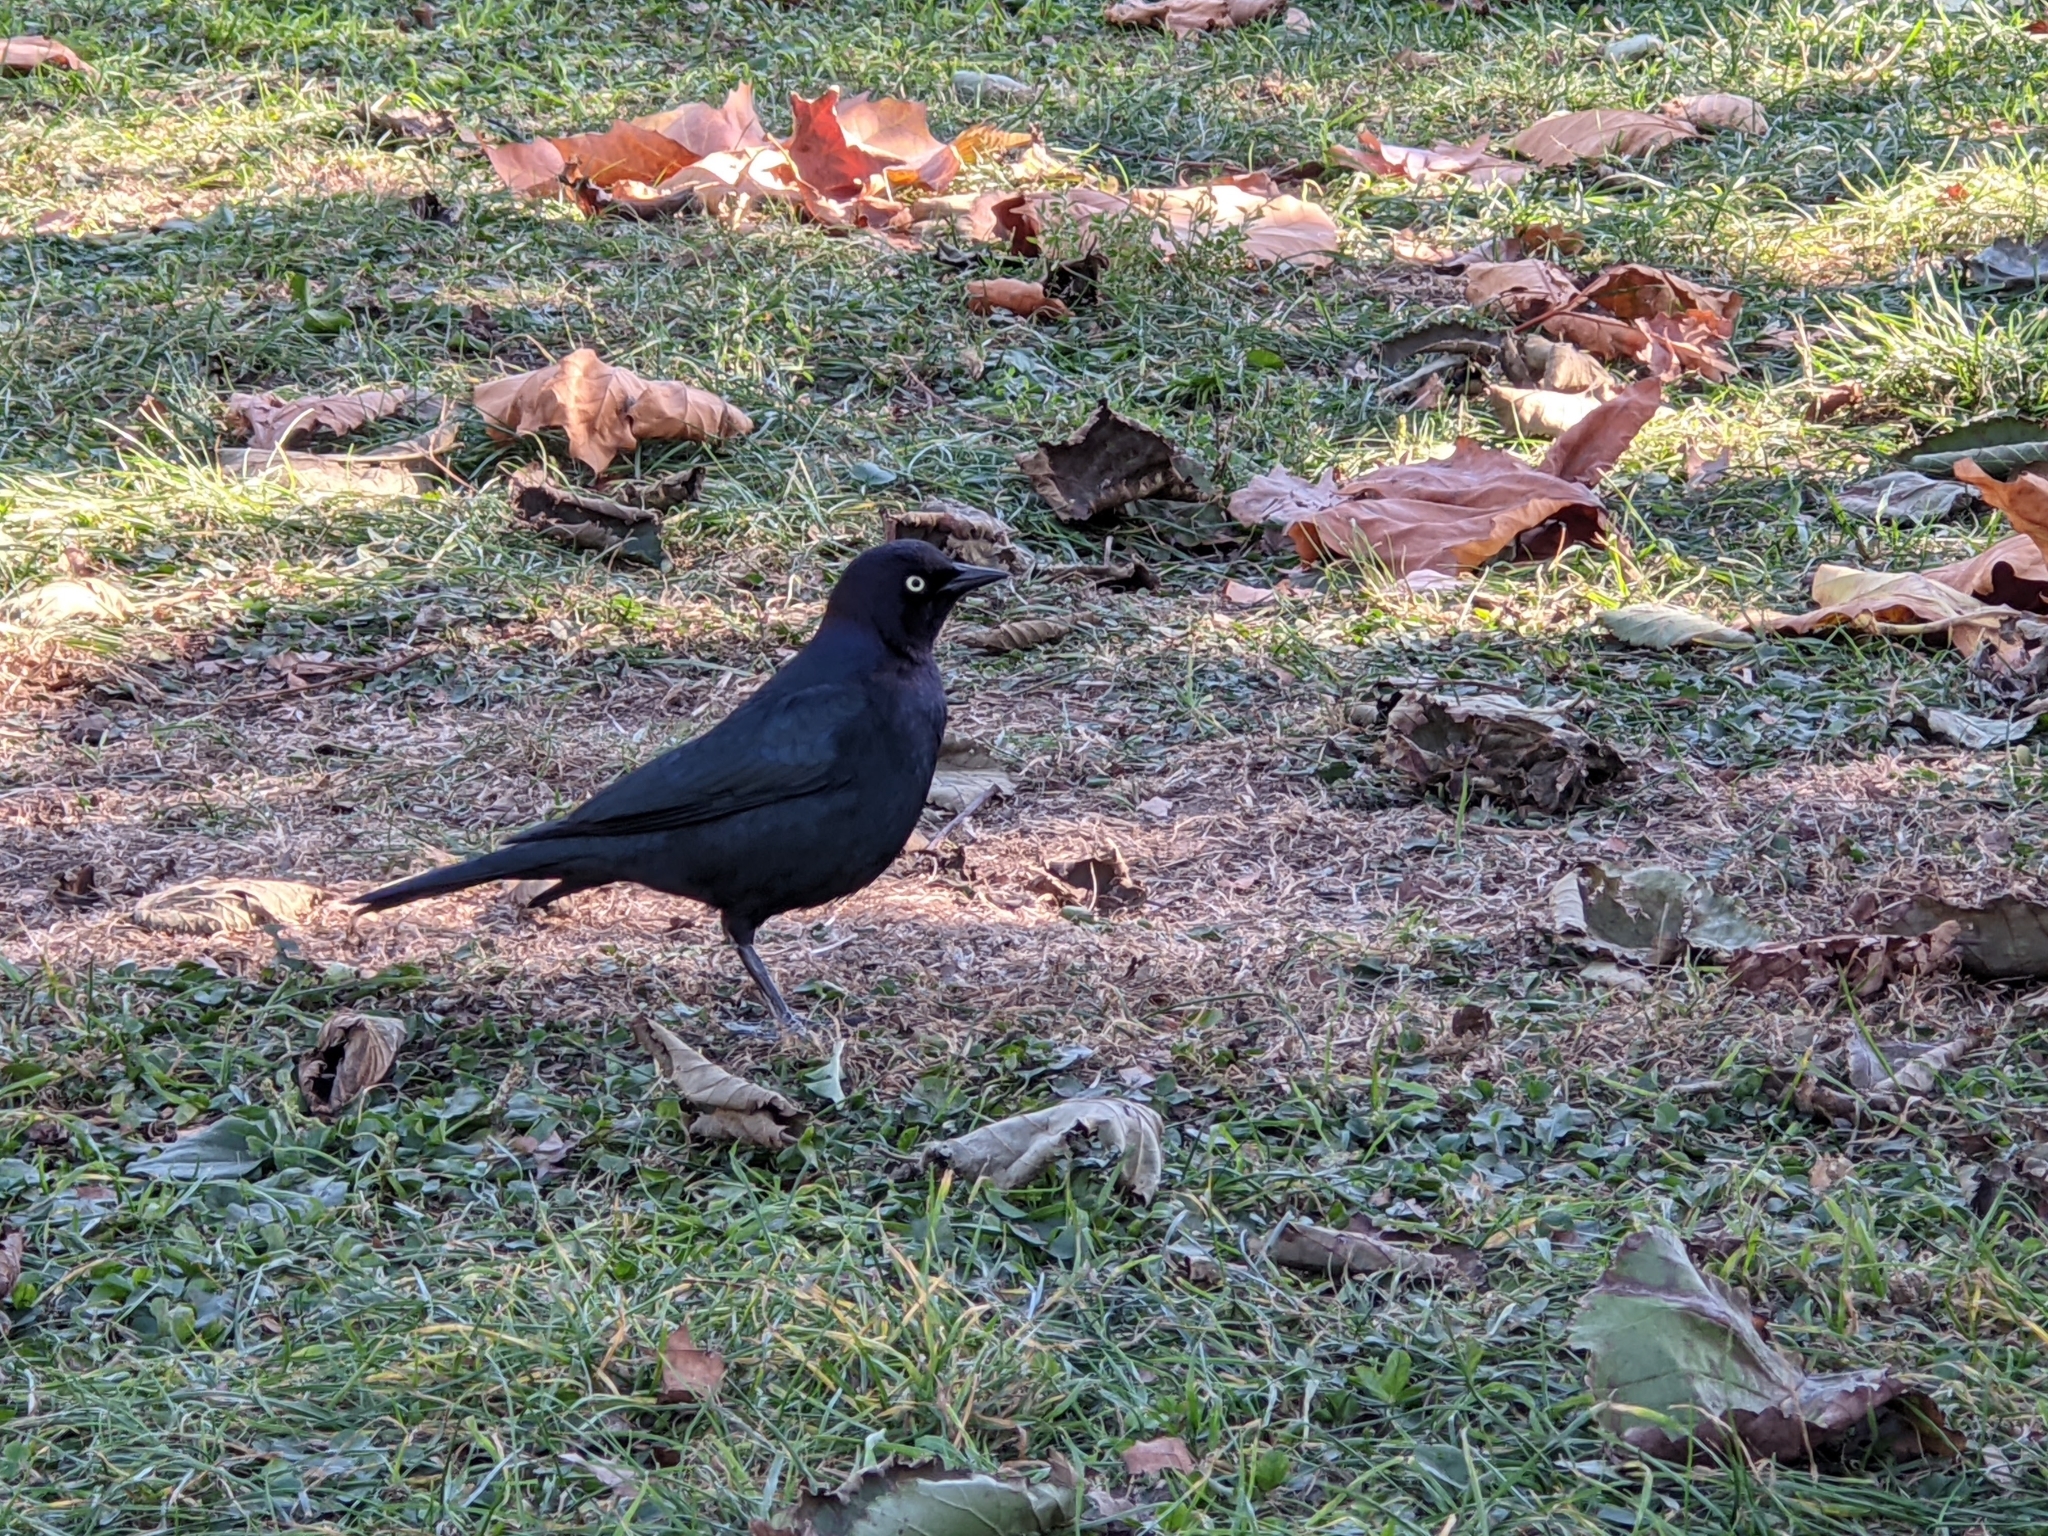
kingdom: Animalia
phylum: Chordata
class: Aves
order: Passeriformes
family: Icteridae
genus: Euphagus
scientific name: Euphagus cyanocephalus
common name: Brewer's blackbird
